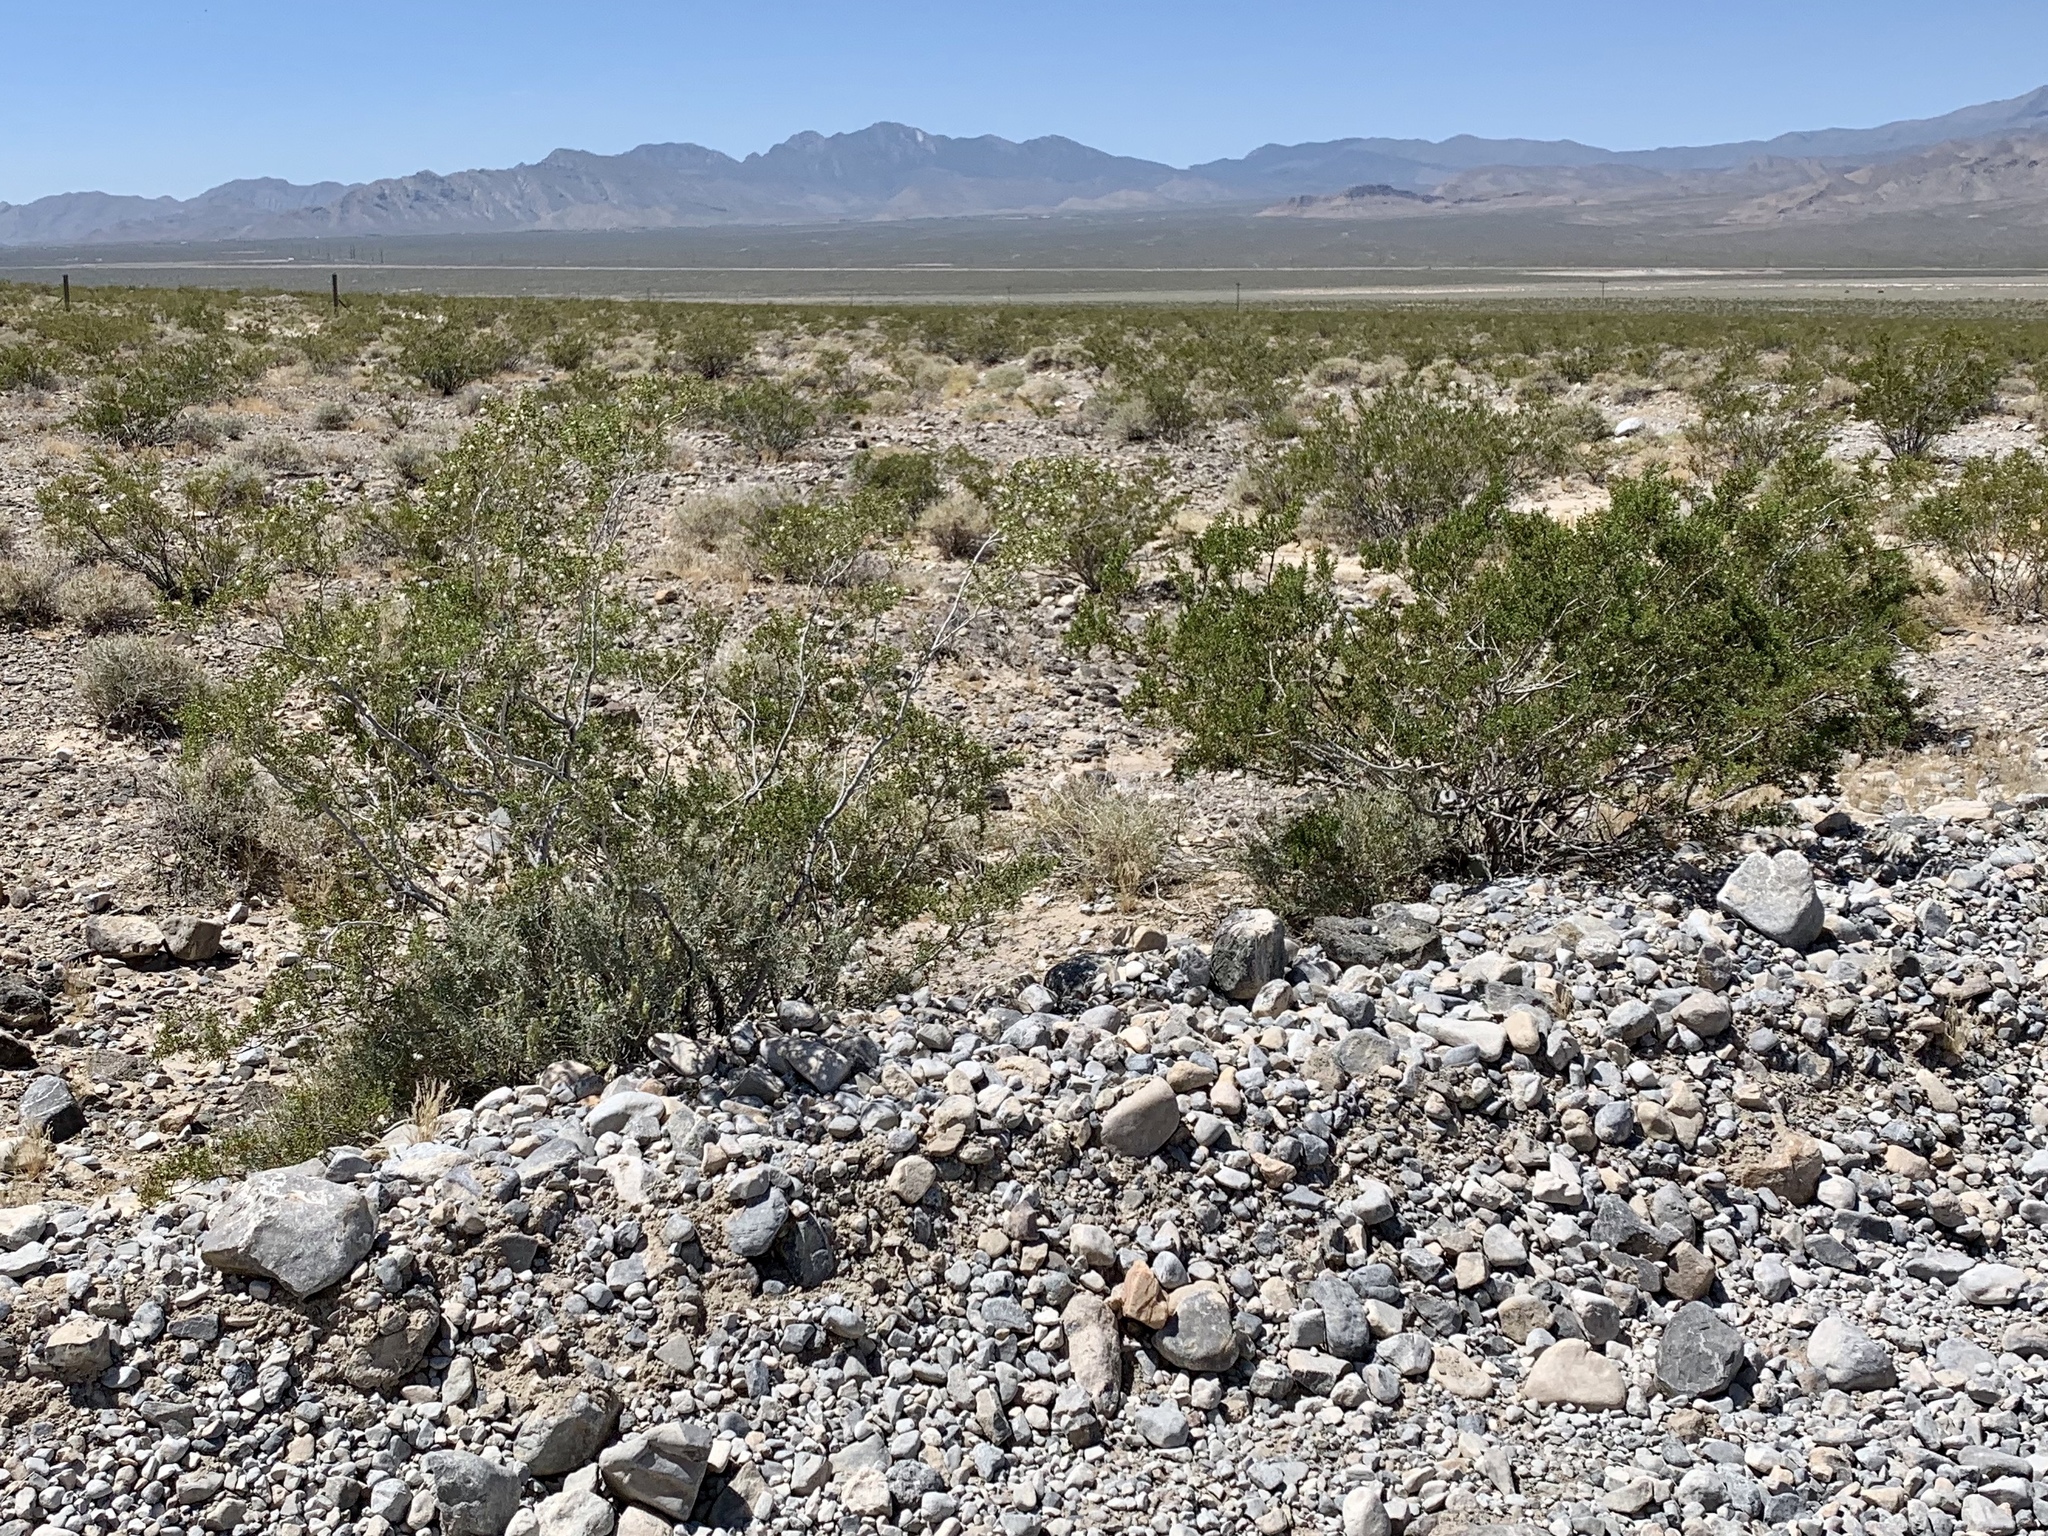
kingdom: Plantae
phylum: Tracheophyta
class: Magnoliopsida
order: Zygophyllales
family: Zygophyllaceae
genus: Larrea
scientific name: Larrea tridentata
